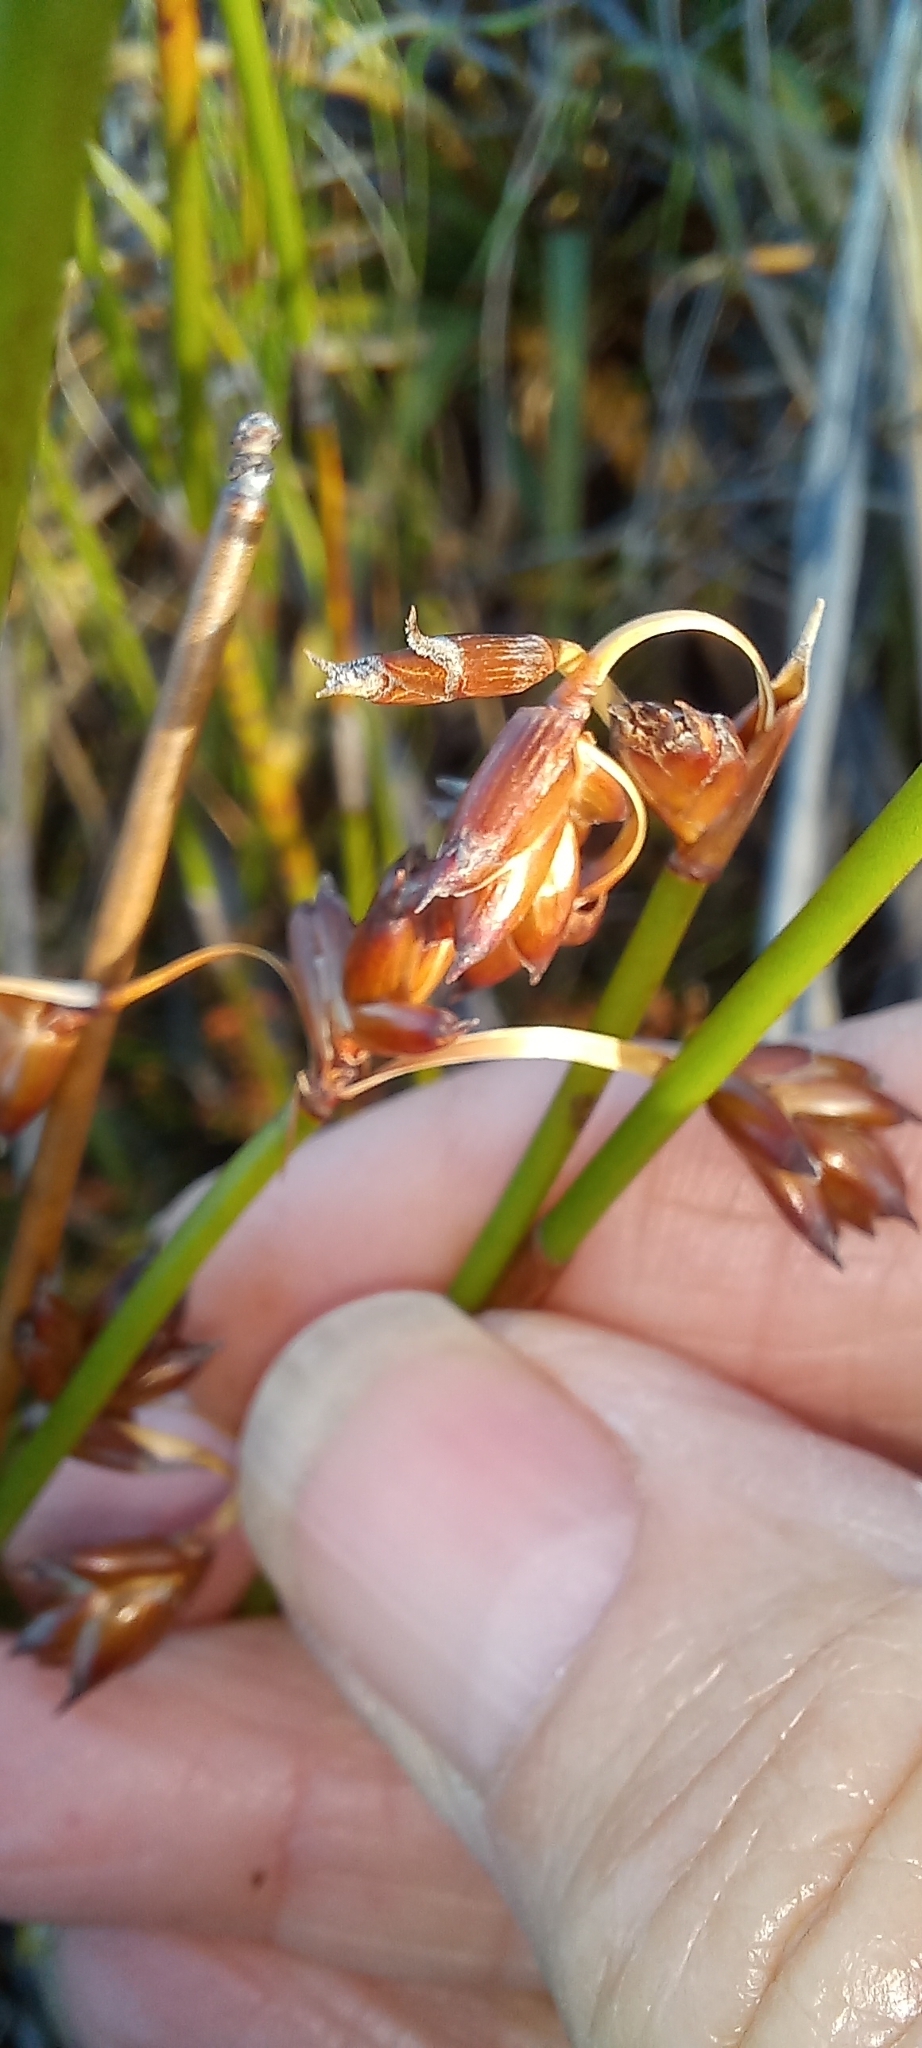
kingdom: Plantae
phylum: Tracheophyta
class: Liliopsida
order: Poales
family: Restionaceae
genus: Restio
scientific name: Restio egregius
